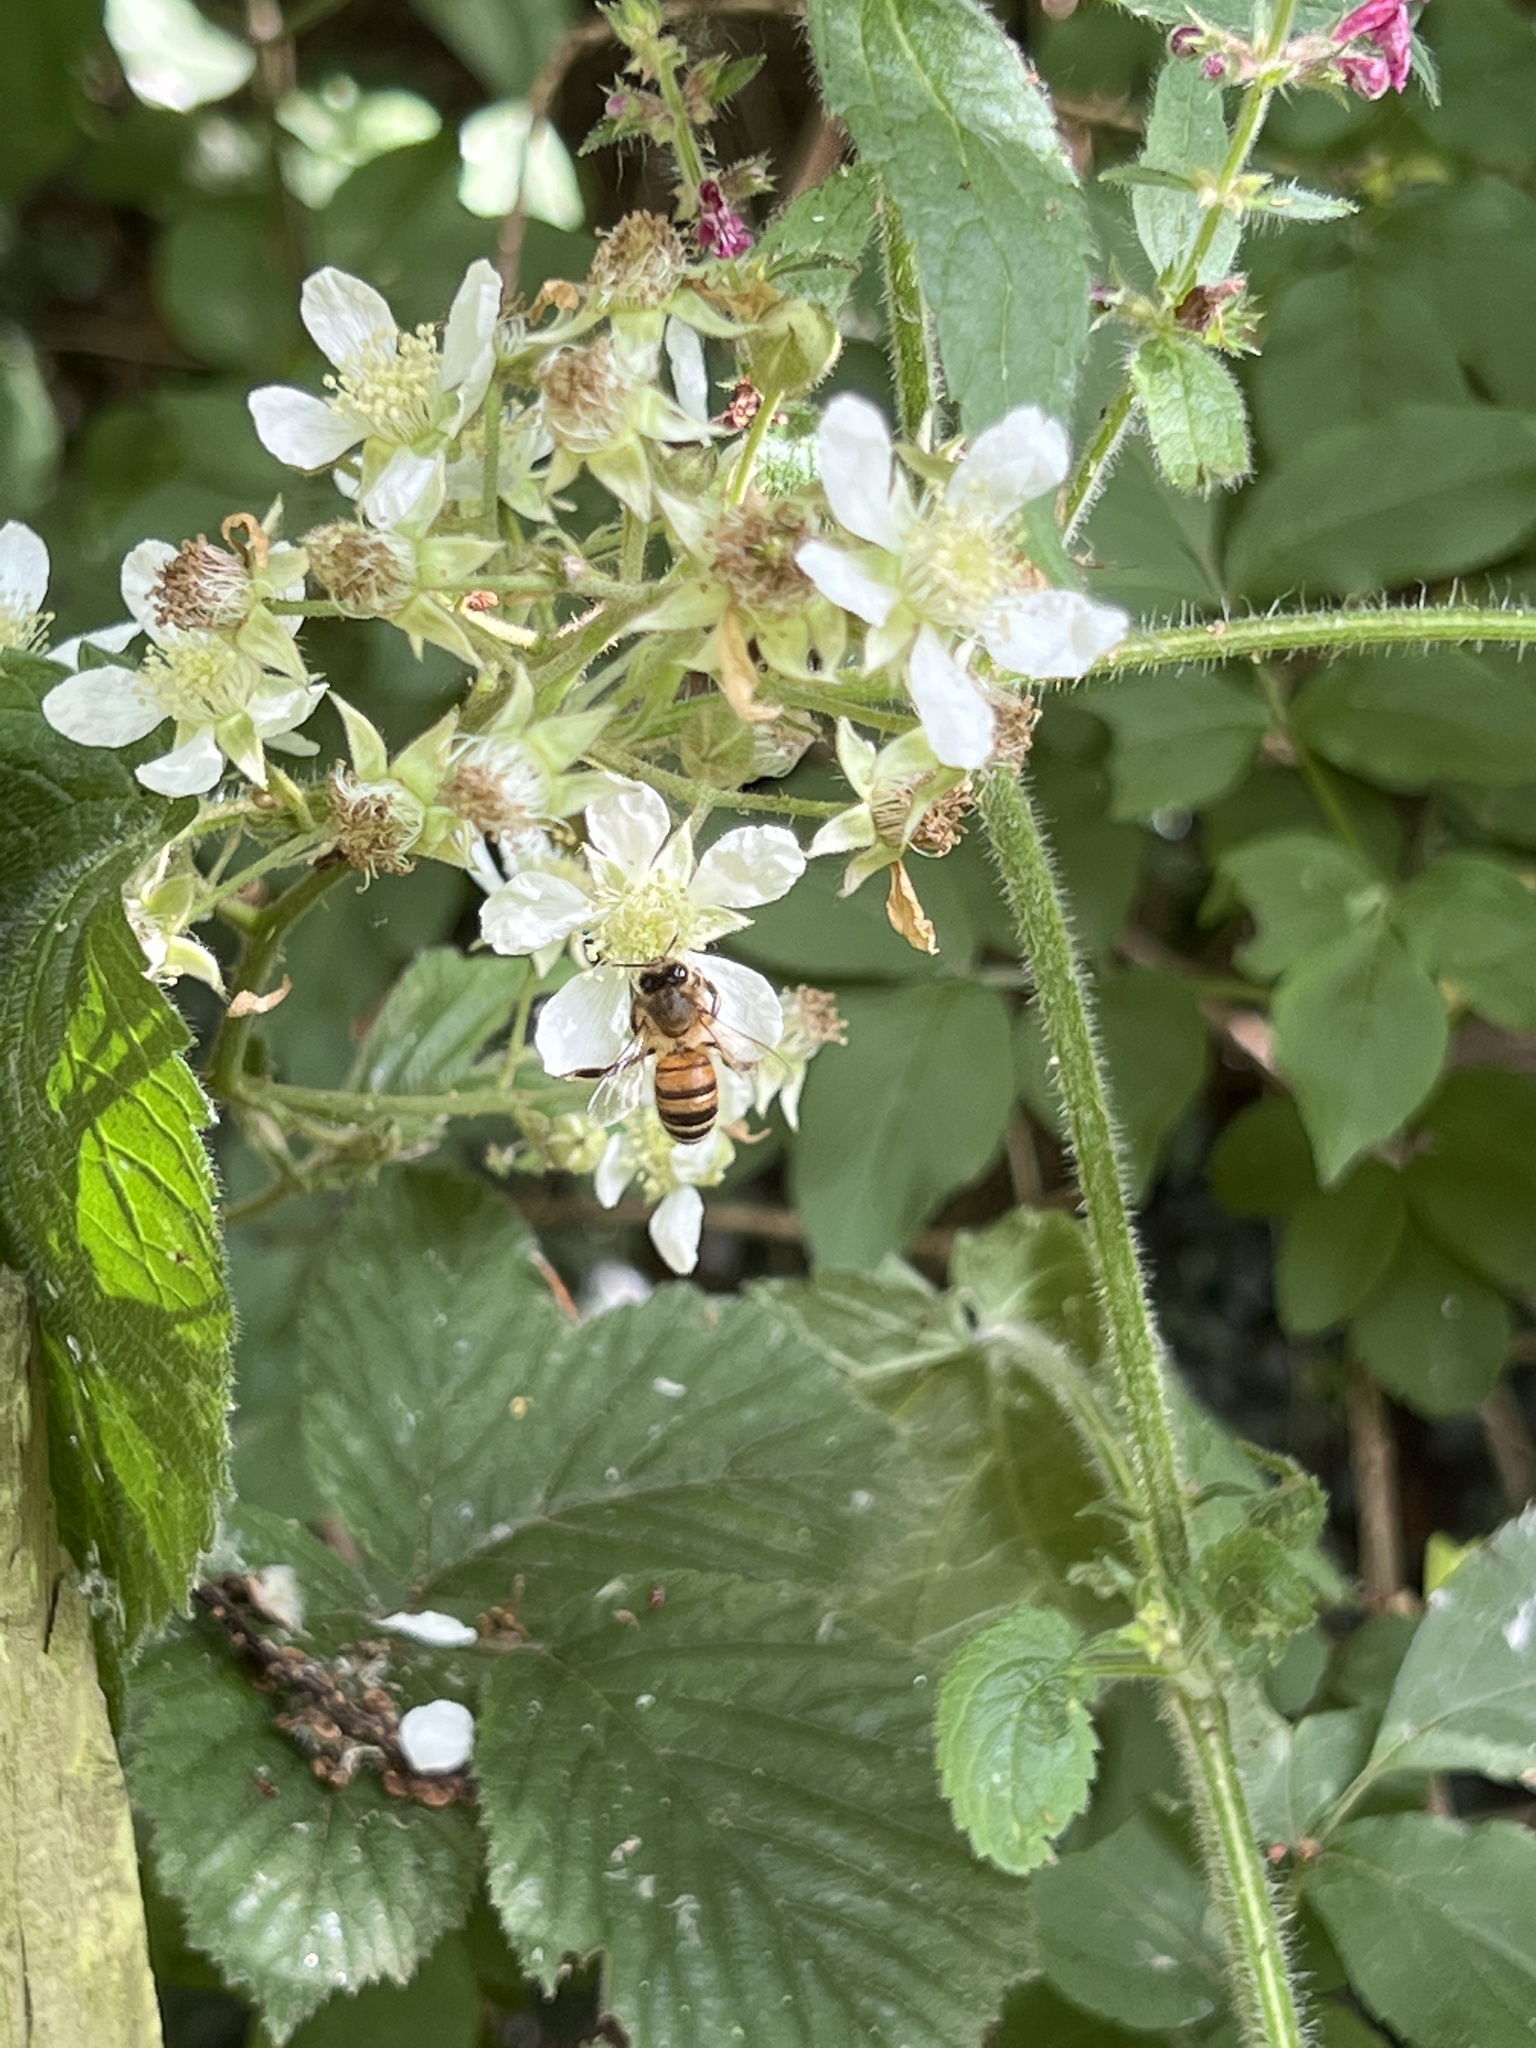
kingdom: Animalia
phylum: Arthropoda
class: Insecta
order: Hymenoptera
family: Apidae
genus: Apis
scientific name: Apis mellifera
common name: Honey bee
